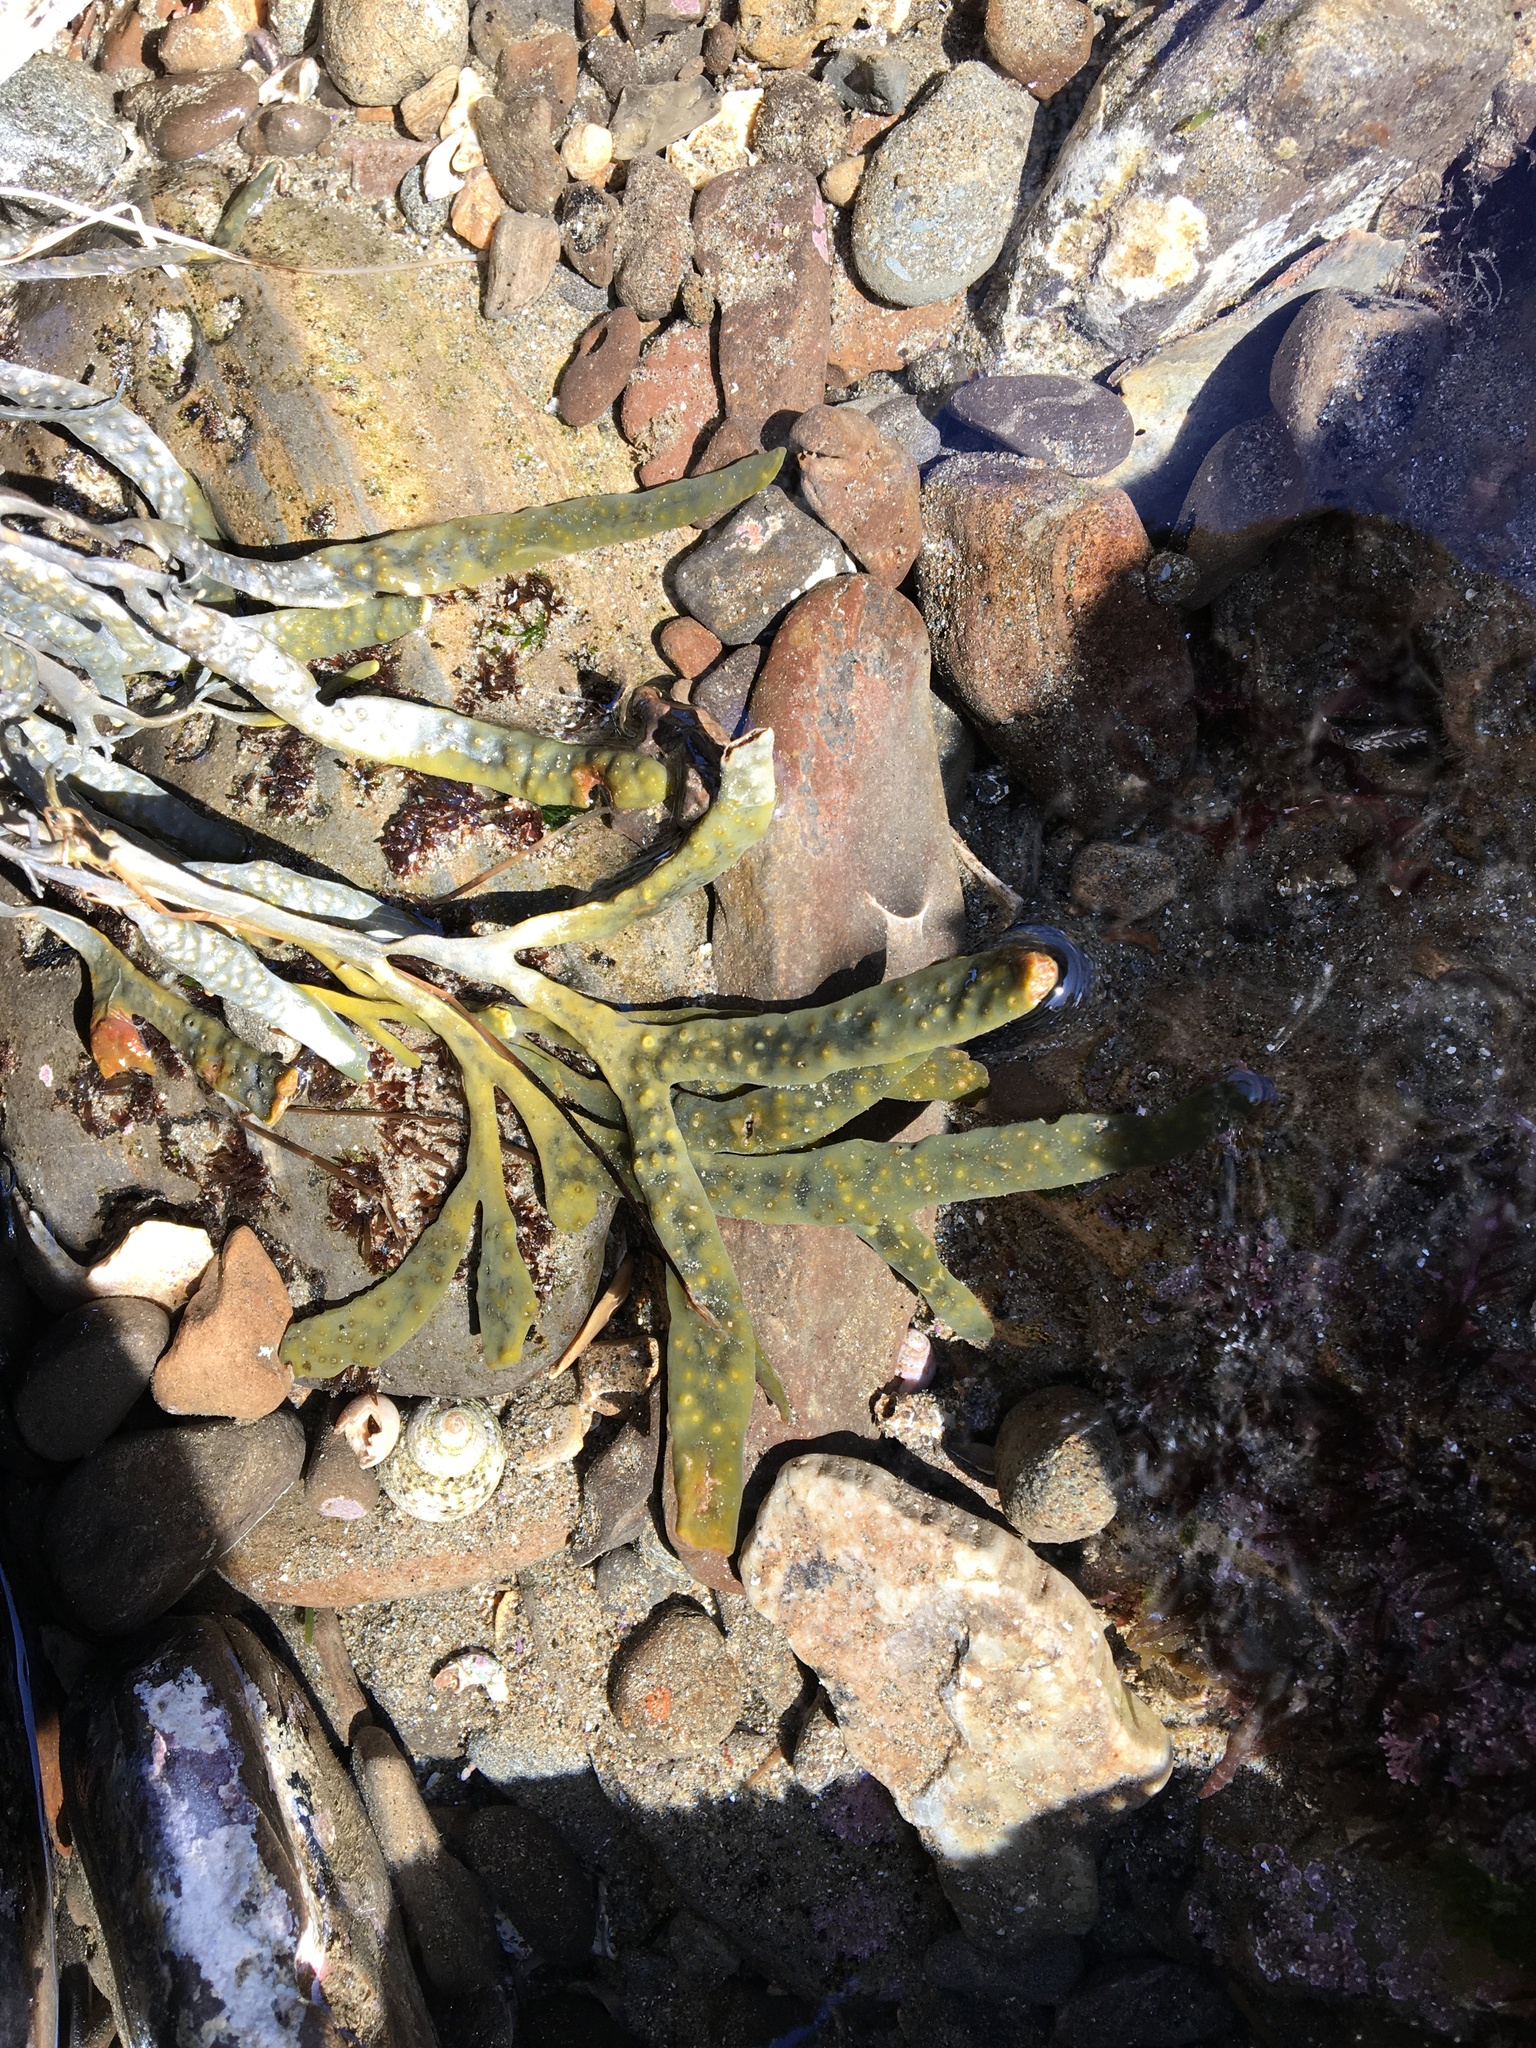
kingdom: Chromista
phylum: Ochrophyta
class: Phaeophyceae
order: Fucales
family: Fucaceae
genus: Silvetia
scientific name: Silvetia
